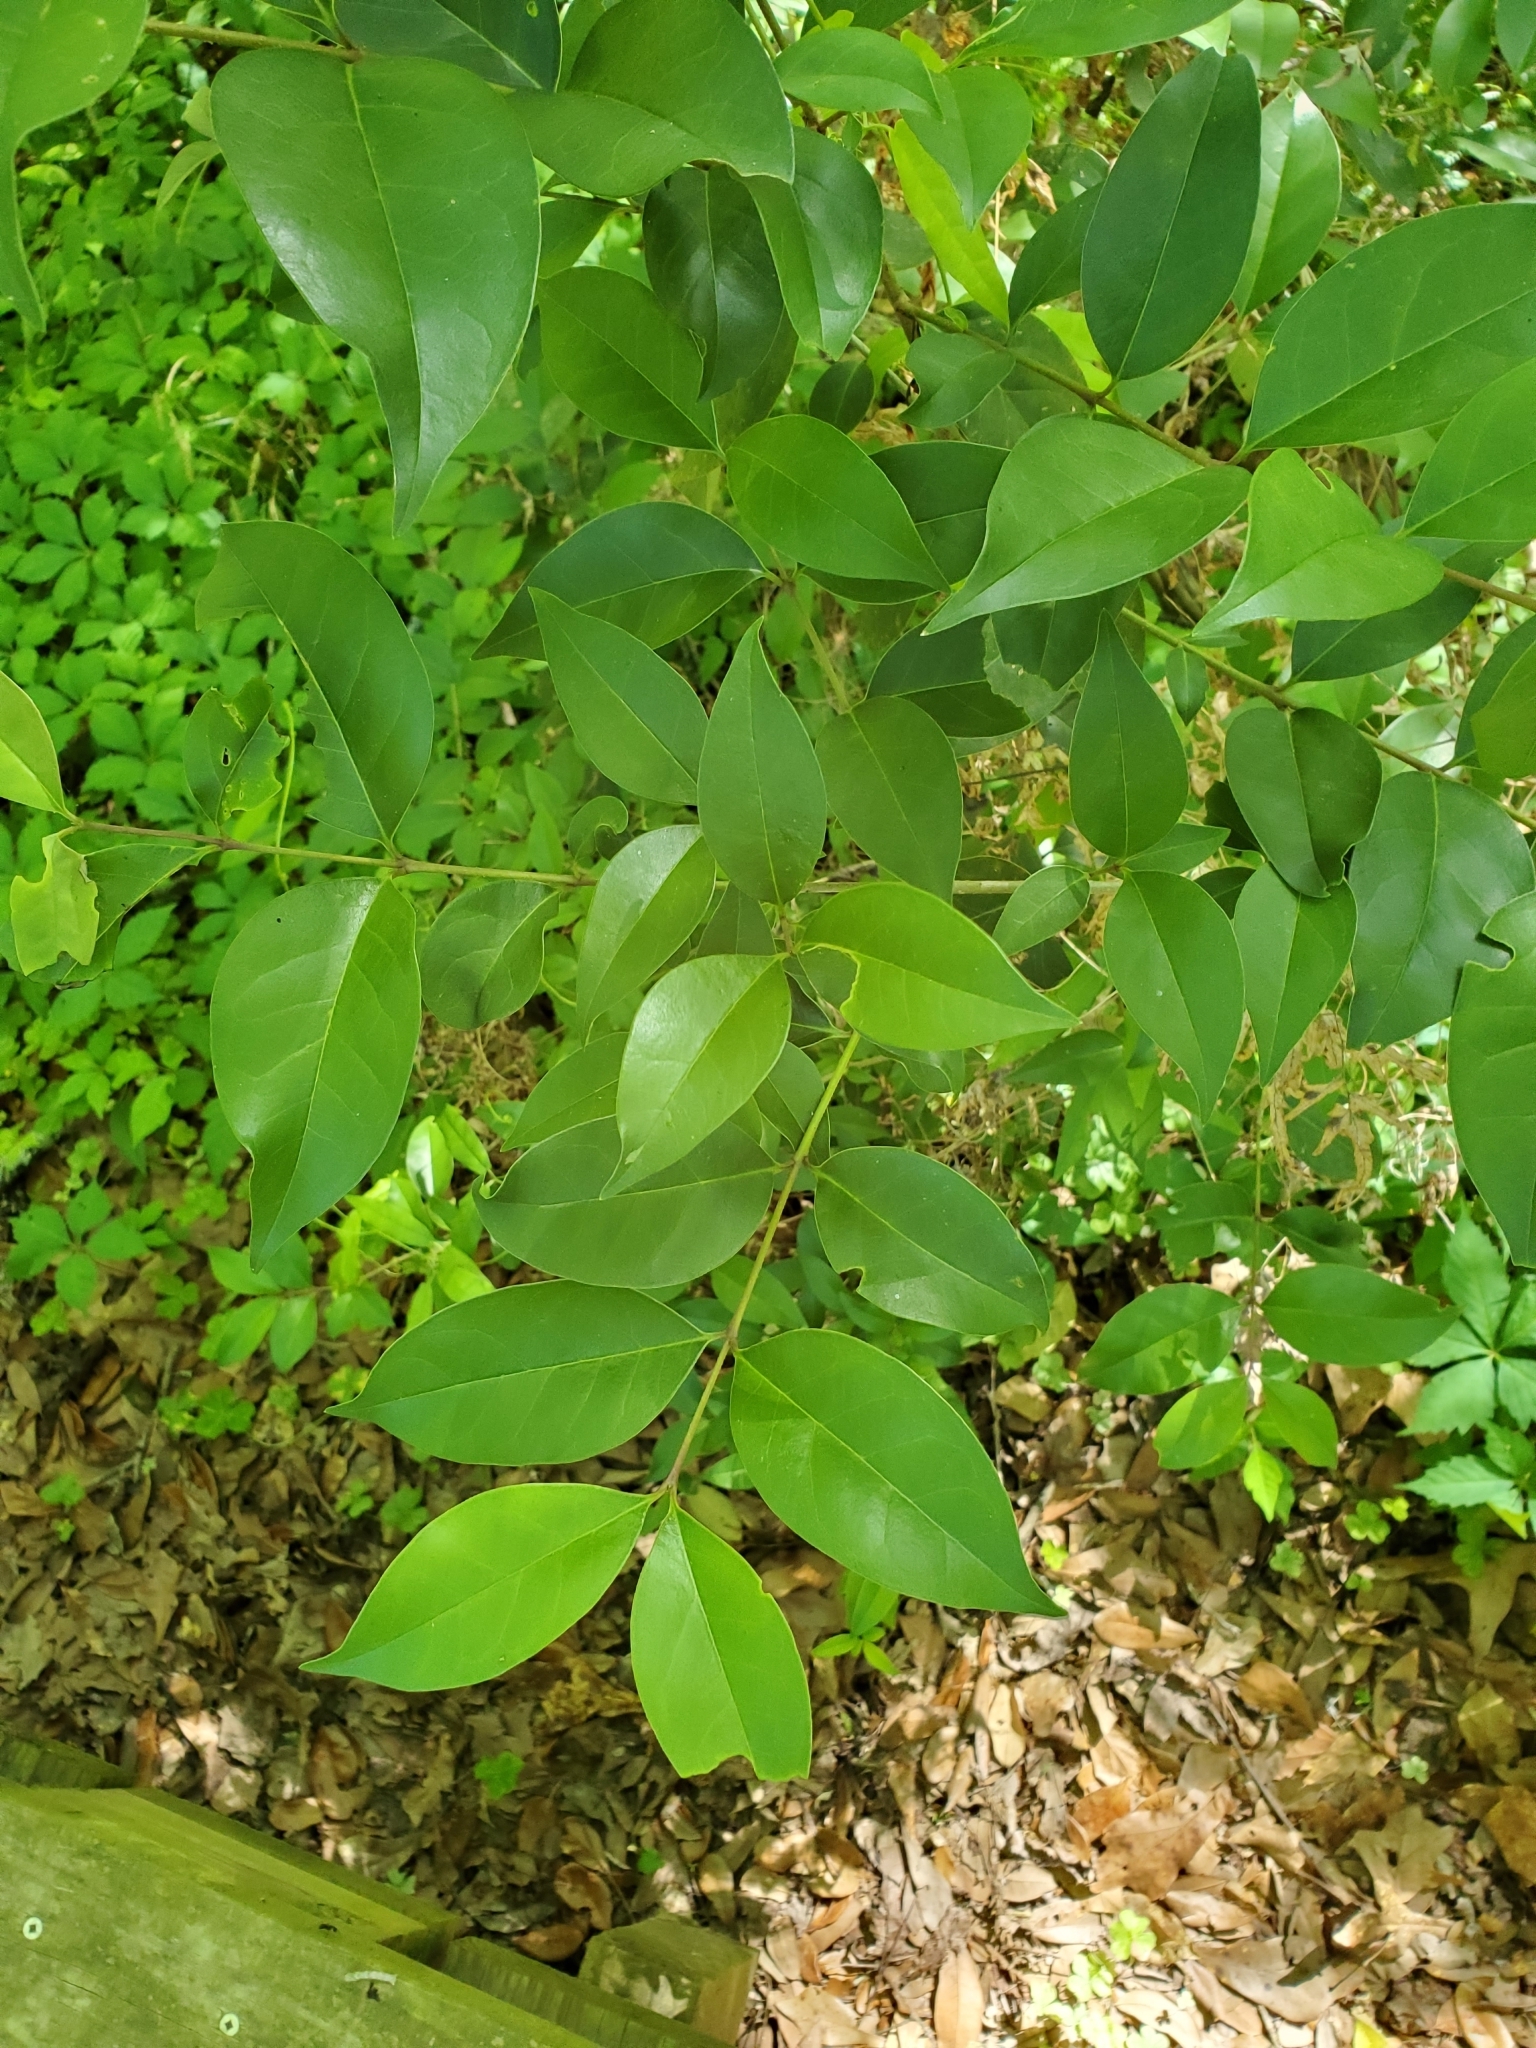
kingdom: Plantae
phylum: Tracheophyta
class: Magnoliopsida
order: Lamiales
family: Oleaceae
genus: Ligustrum
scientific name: Ligustrum lucidum
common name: Glossy privet
